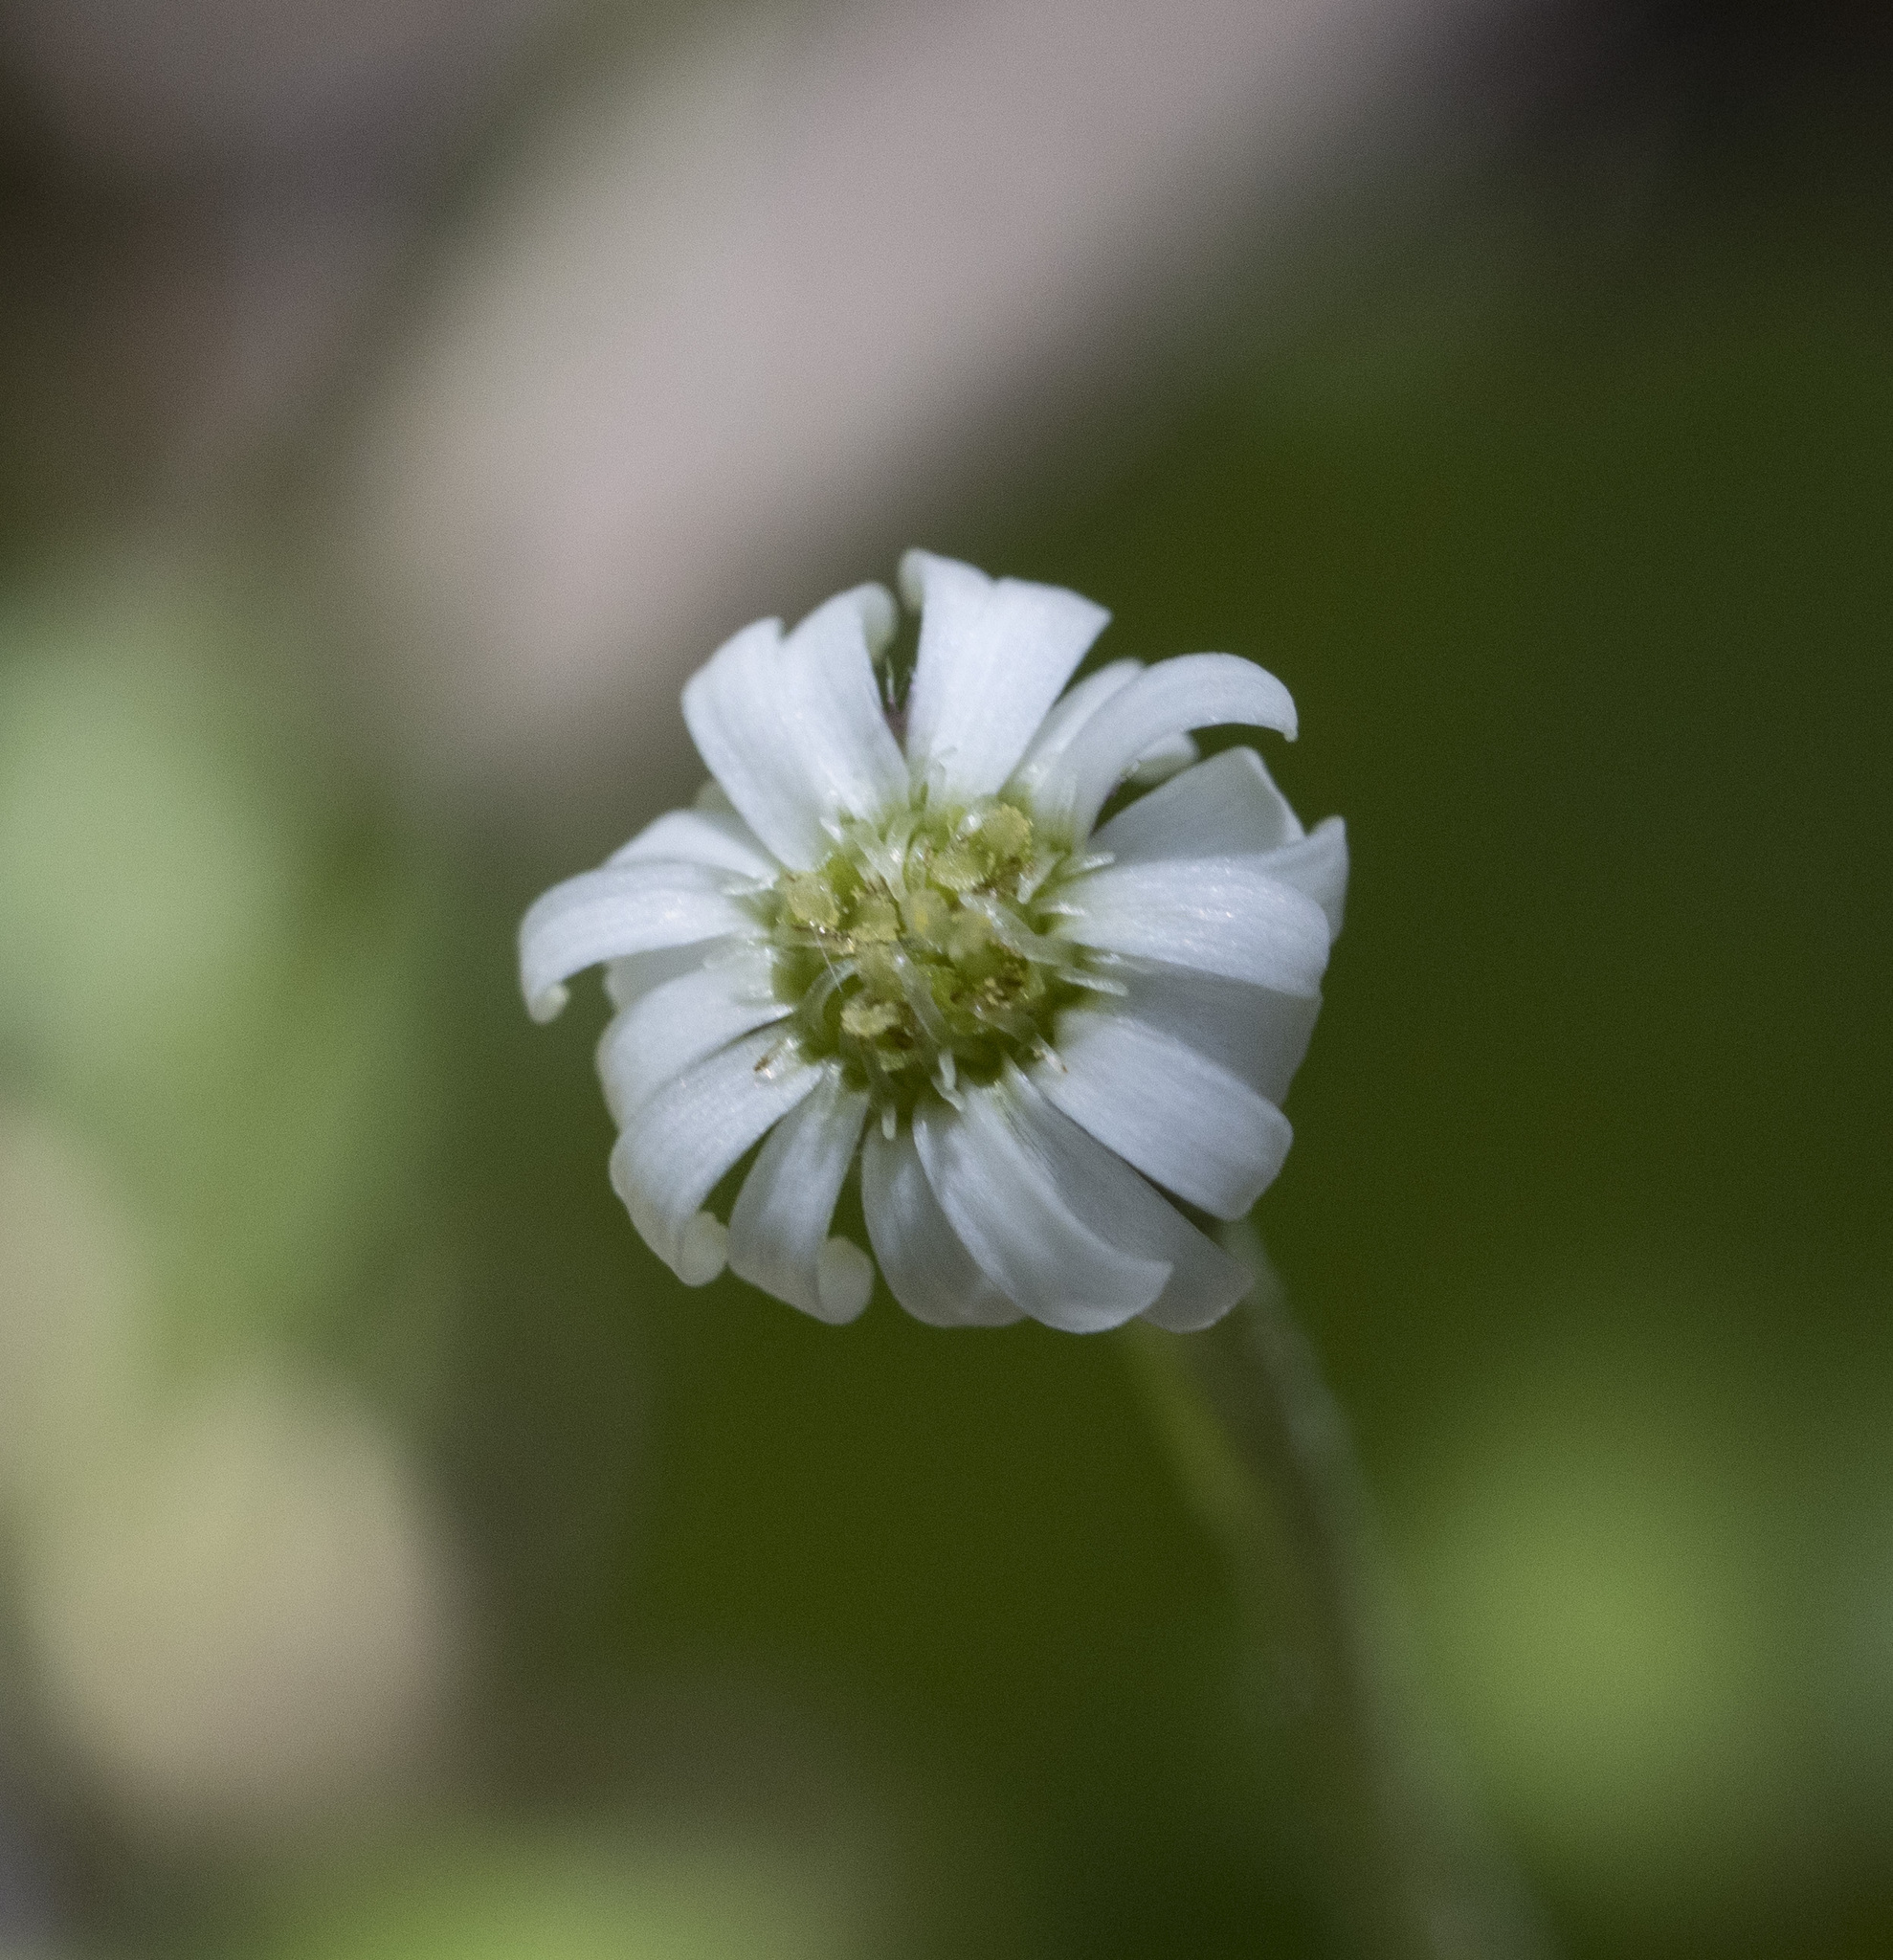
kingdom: Plantae
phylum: Tracheophyta
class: Magnoliopsida
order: Asterales
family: Asteraceae
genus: Lagenophora
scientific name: Lagenophora hariotii
